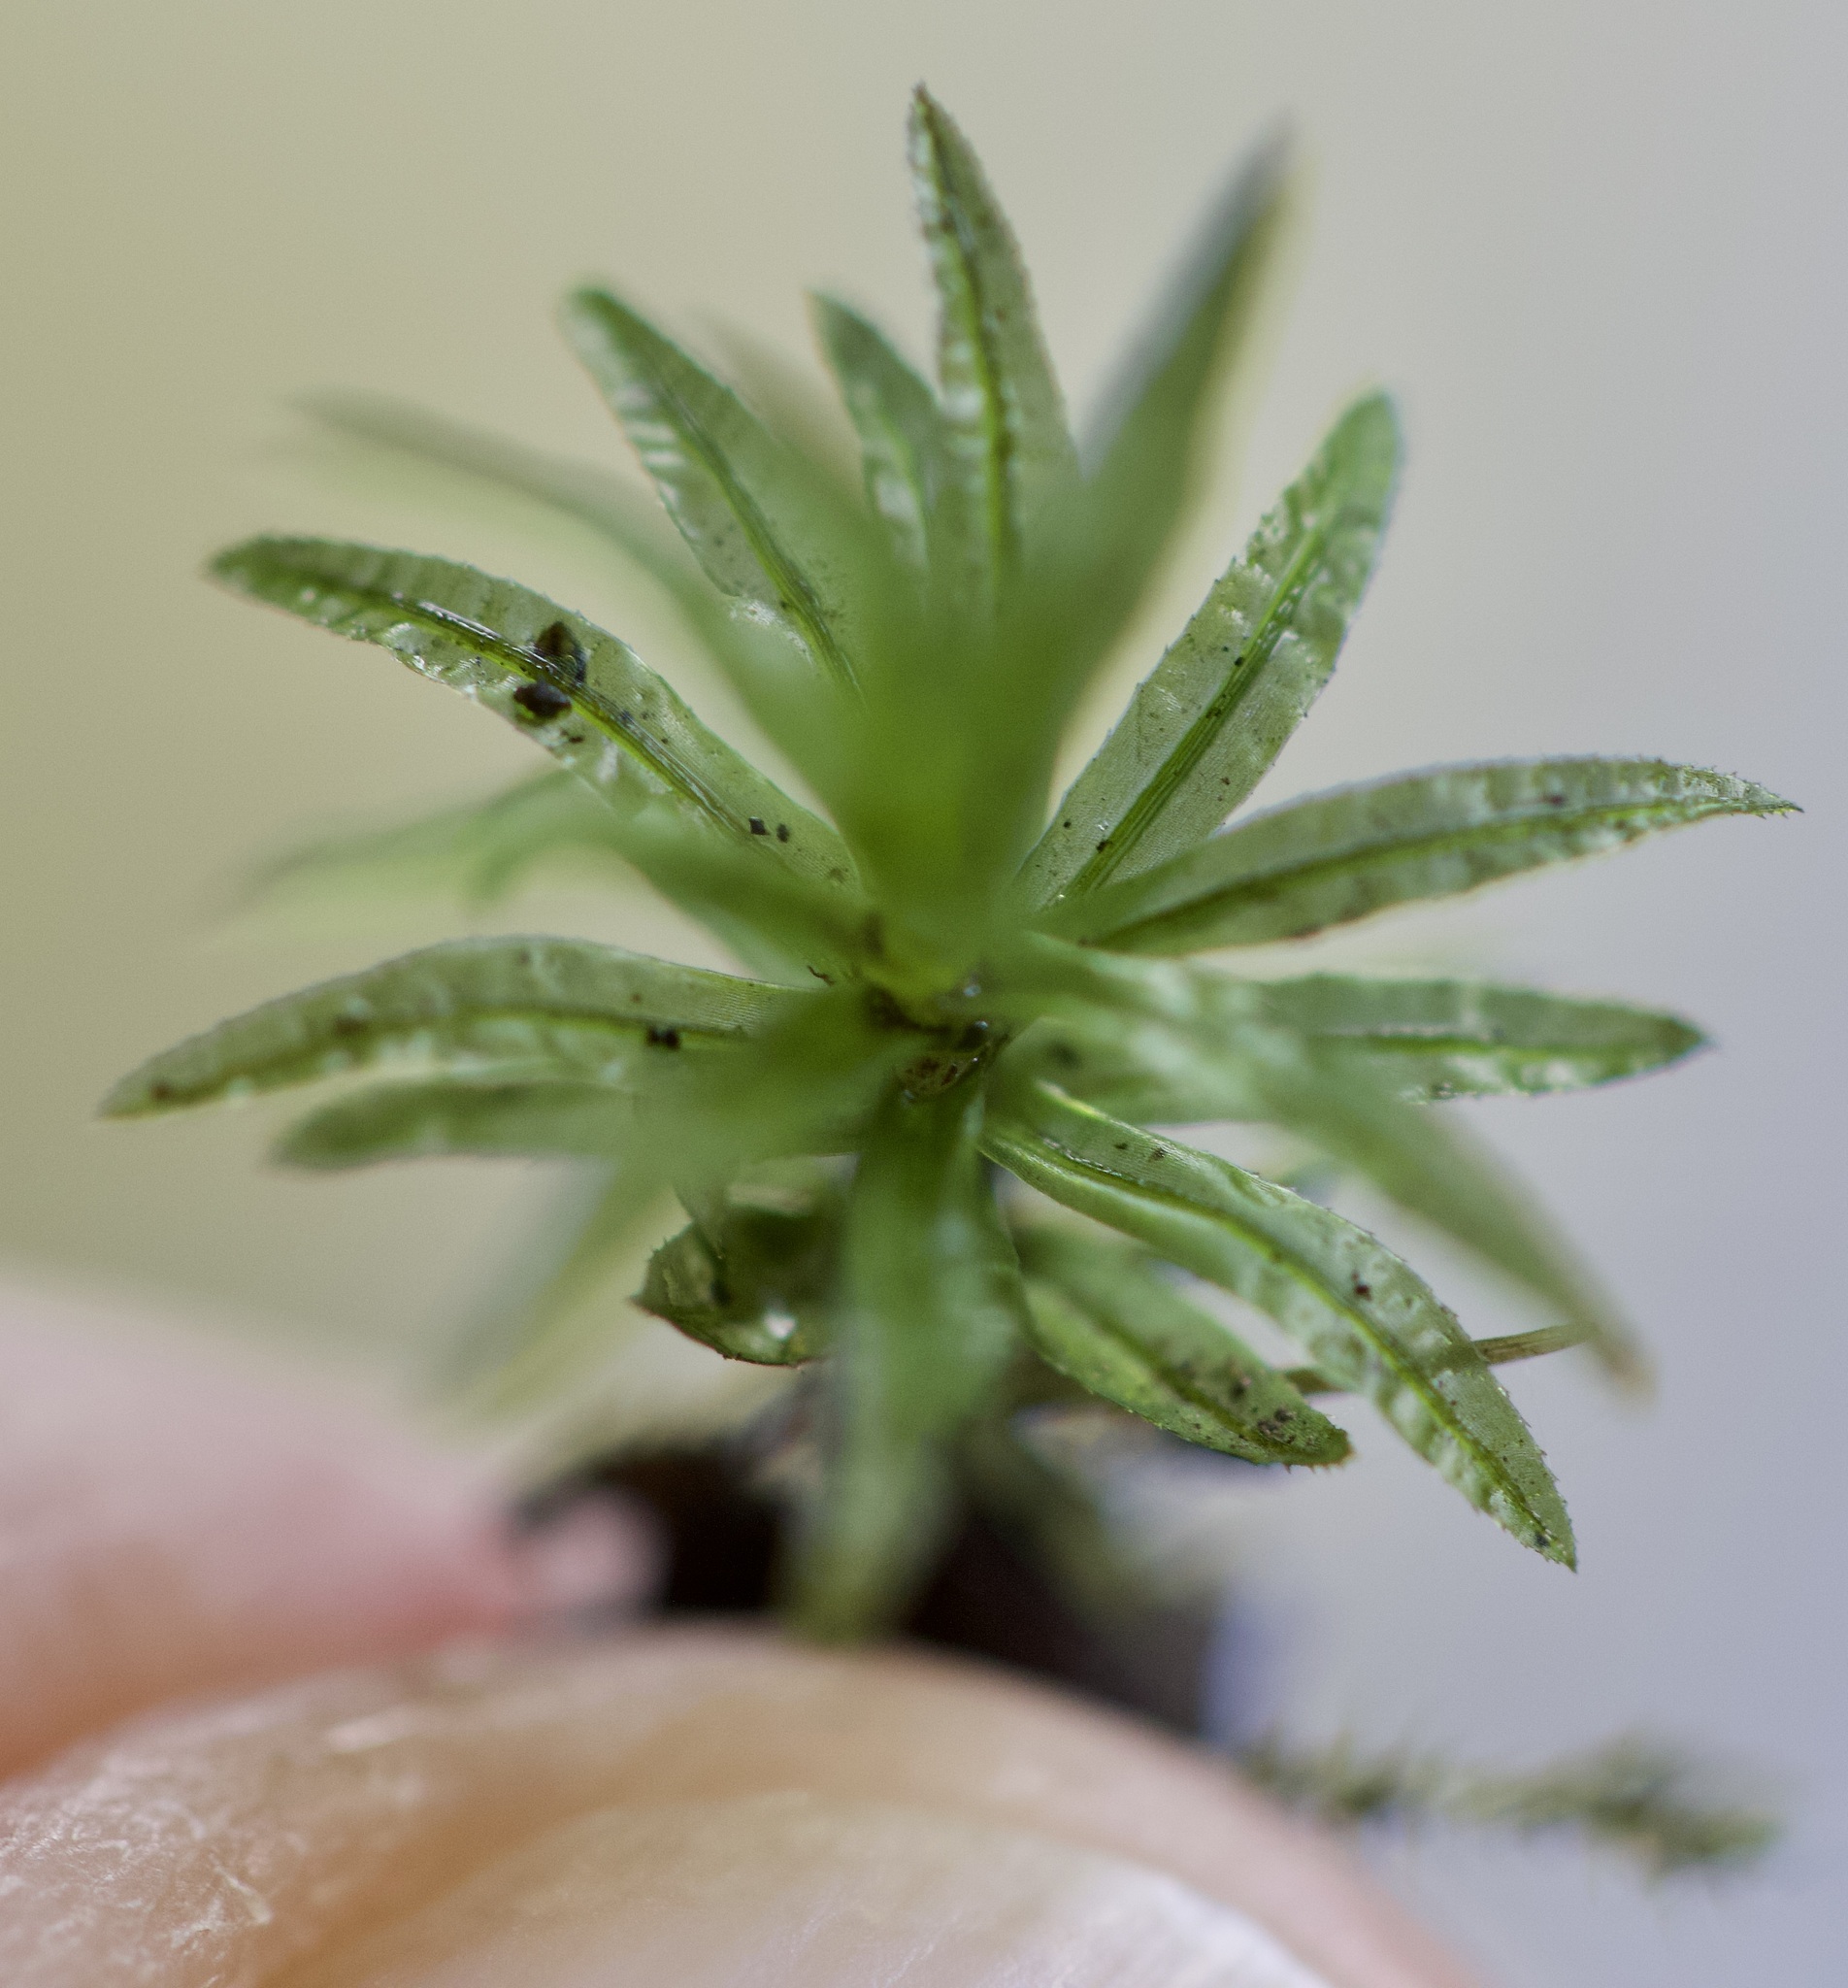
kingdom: Plantae
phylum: Bryophyta
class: Polytrichopsida
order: Polytrichales
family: Polytrichaceae
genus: Atrichum
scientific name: Atrichum undulatum
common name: Common smoothcap
